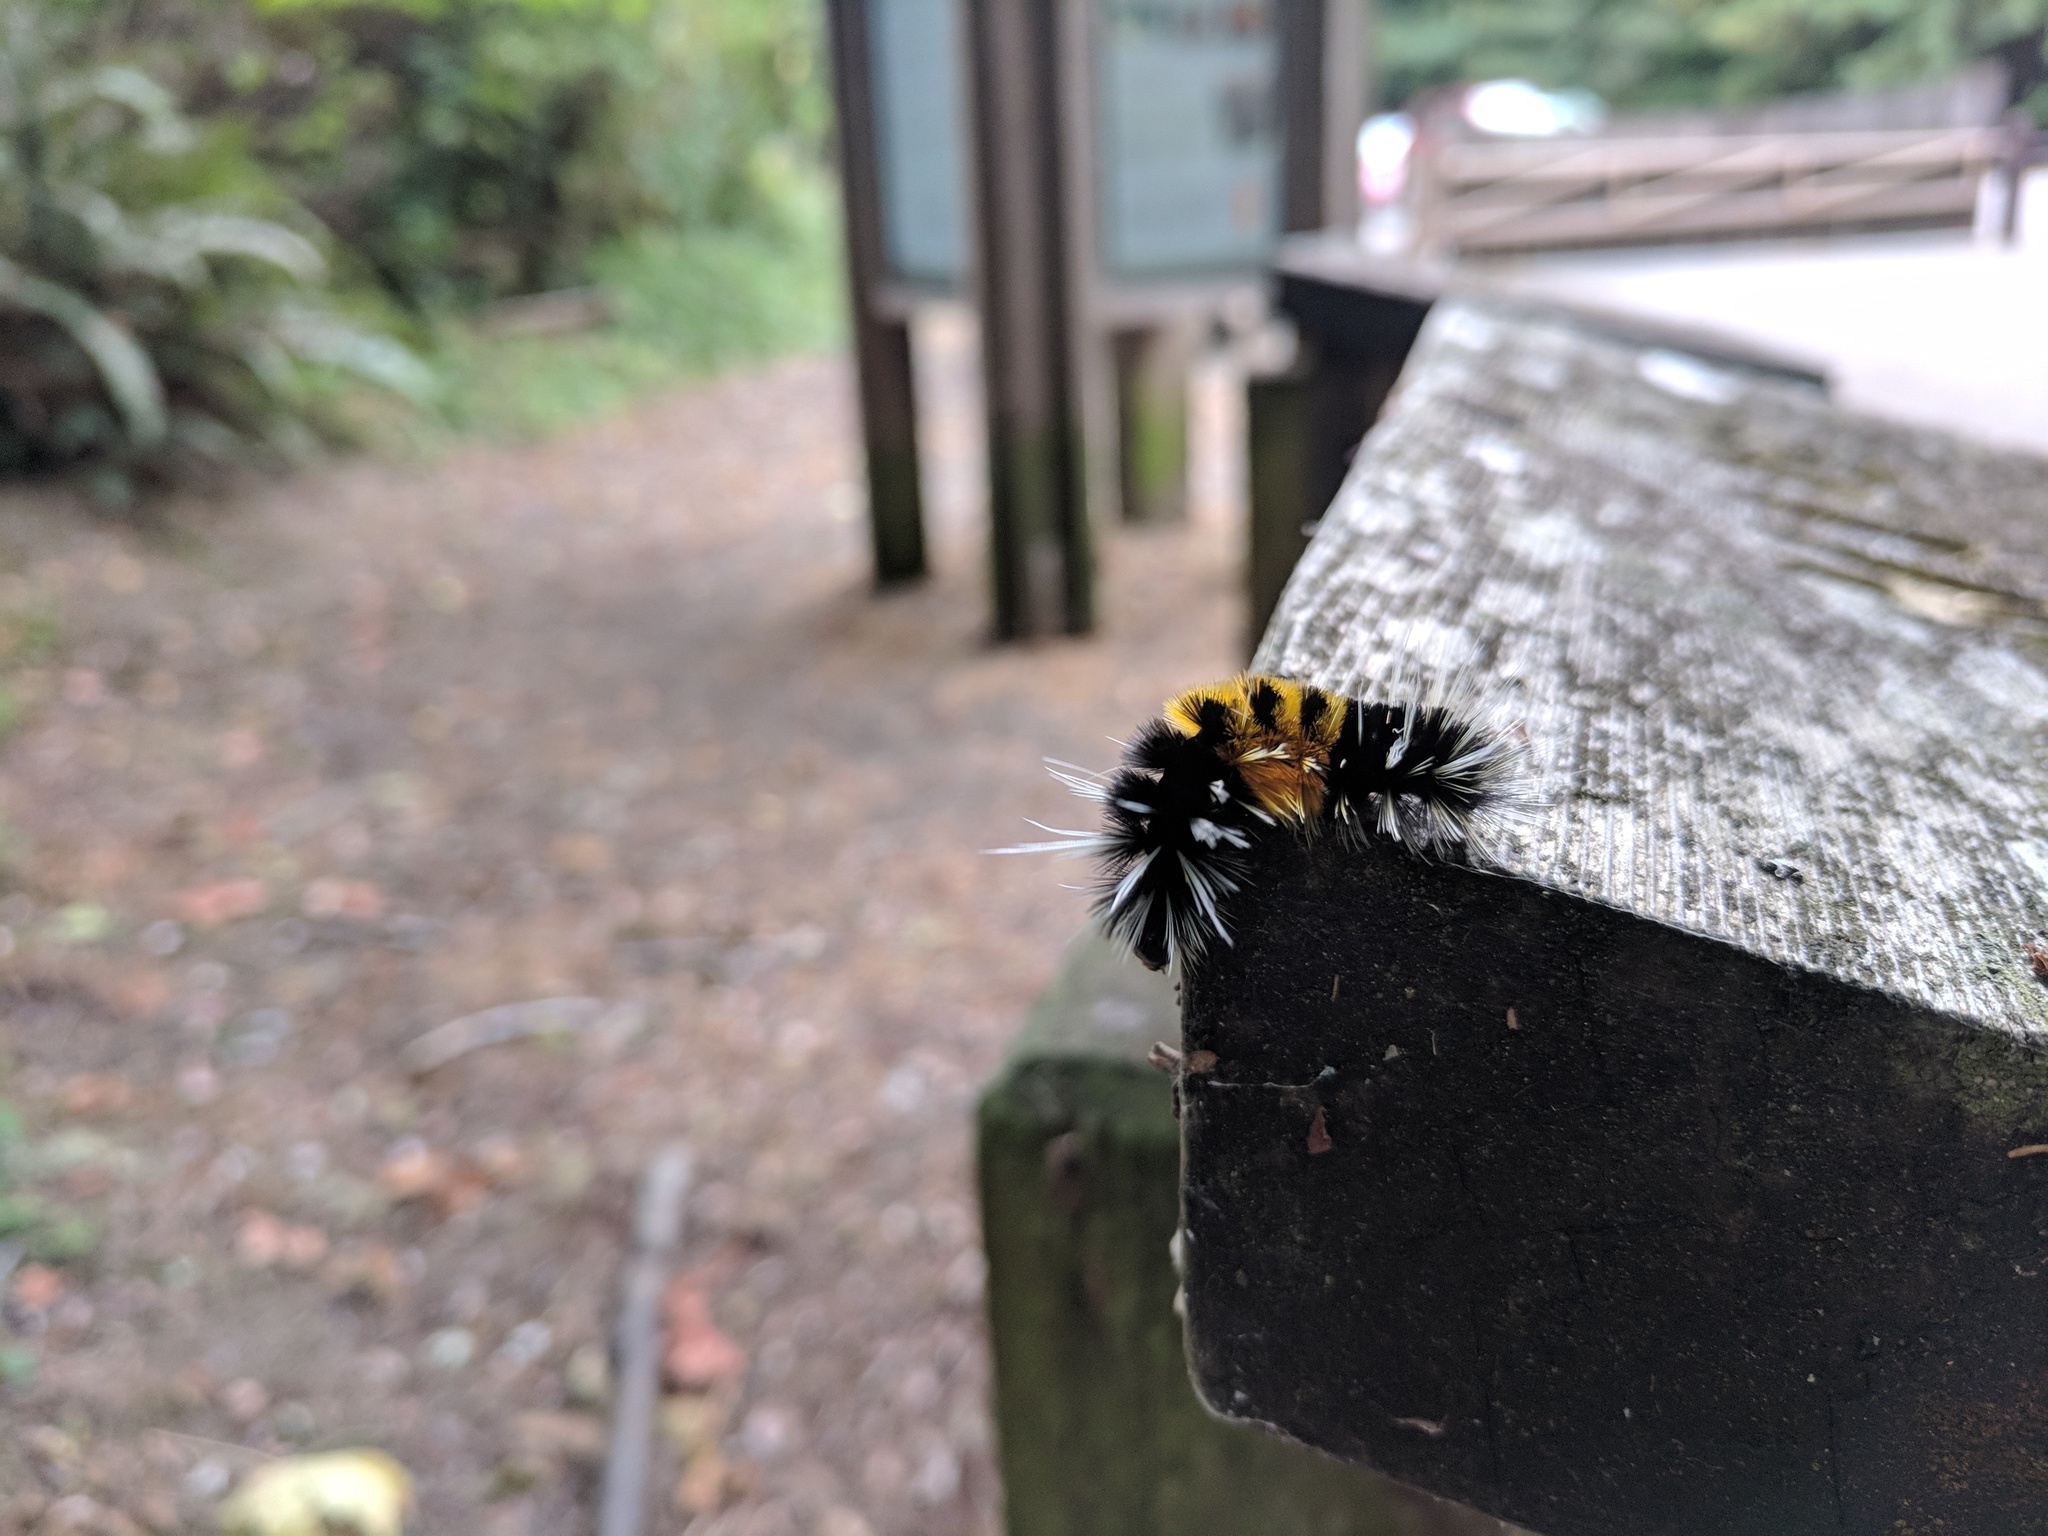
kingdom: Animalia
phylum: Arthropoda
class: Insecta
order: Lepidoptera
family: Erebidae
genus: Lophocampa
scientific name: Lophocampa maculata
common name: Spotted tussock moth
